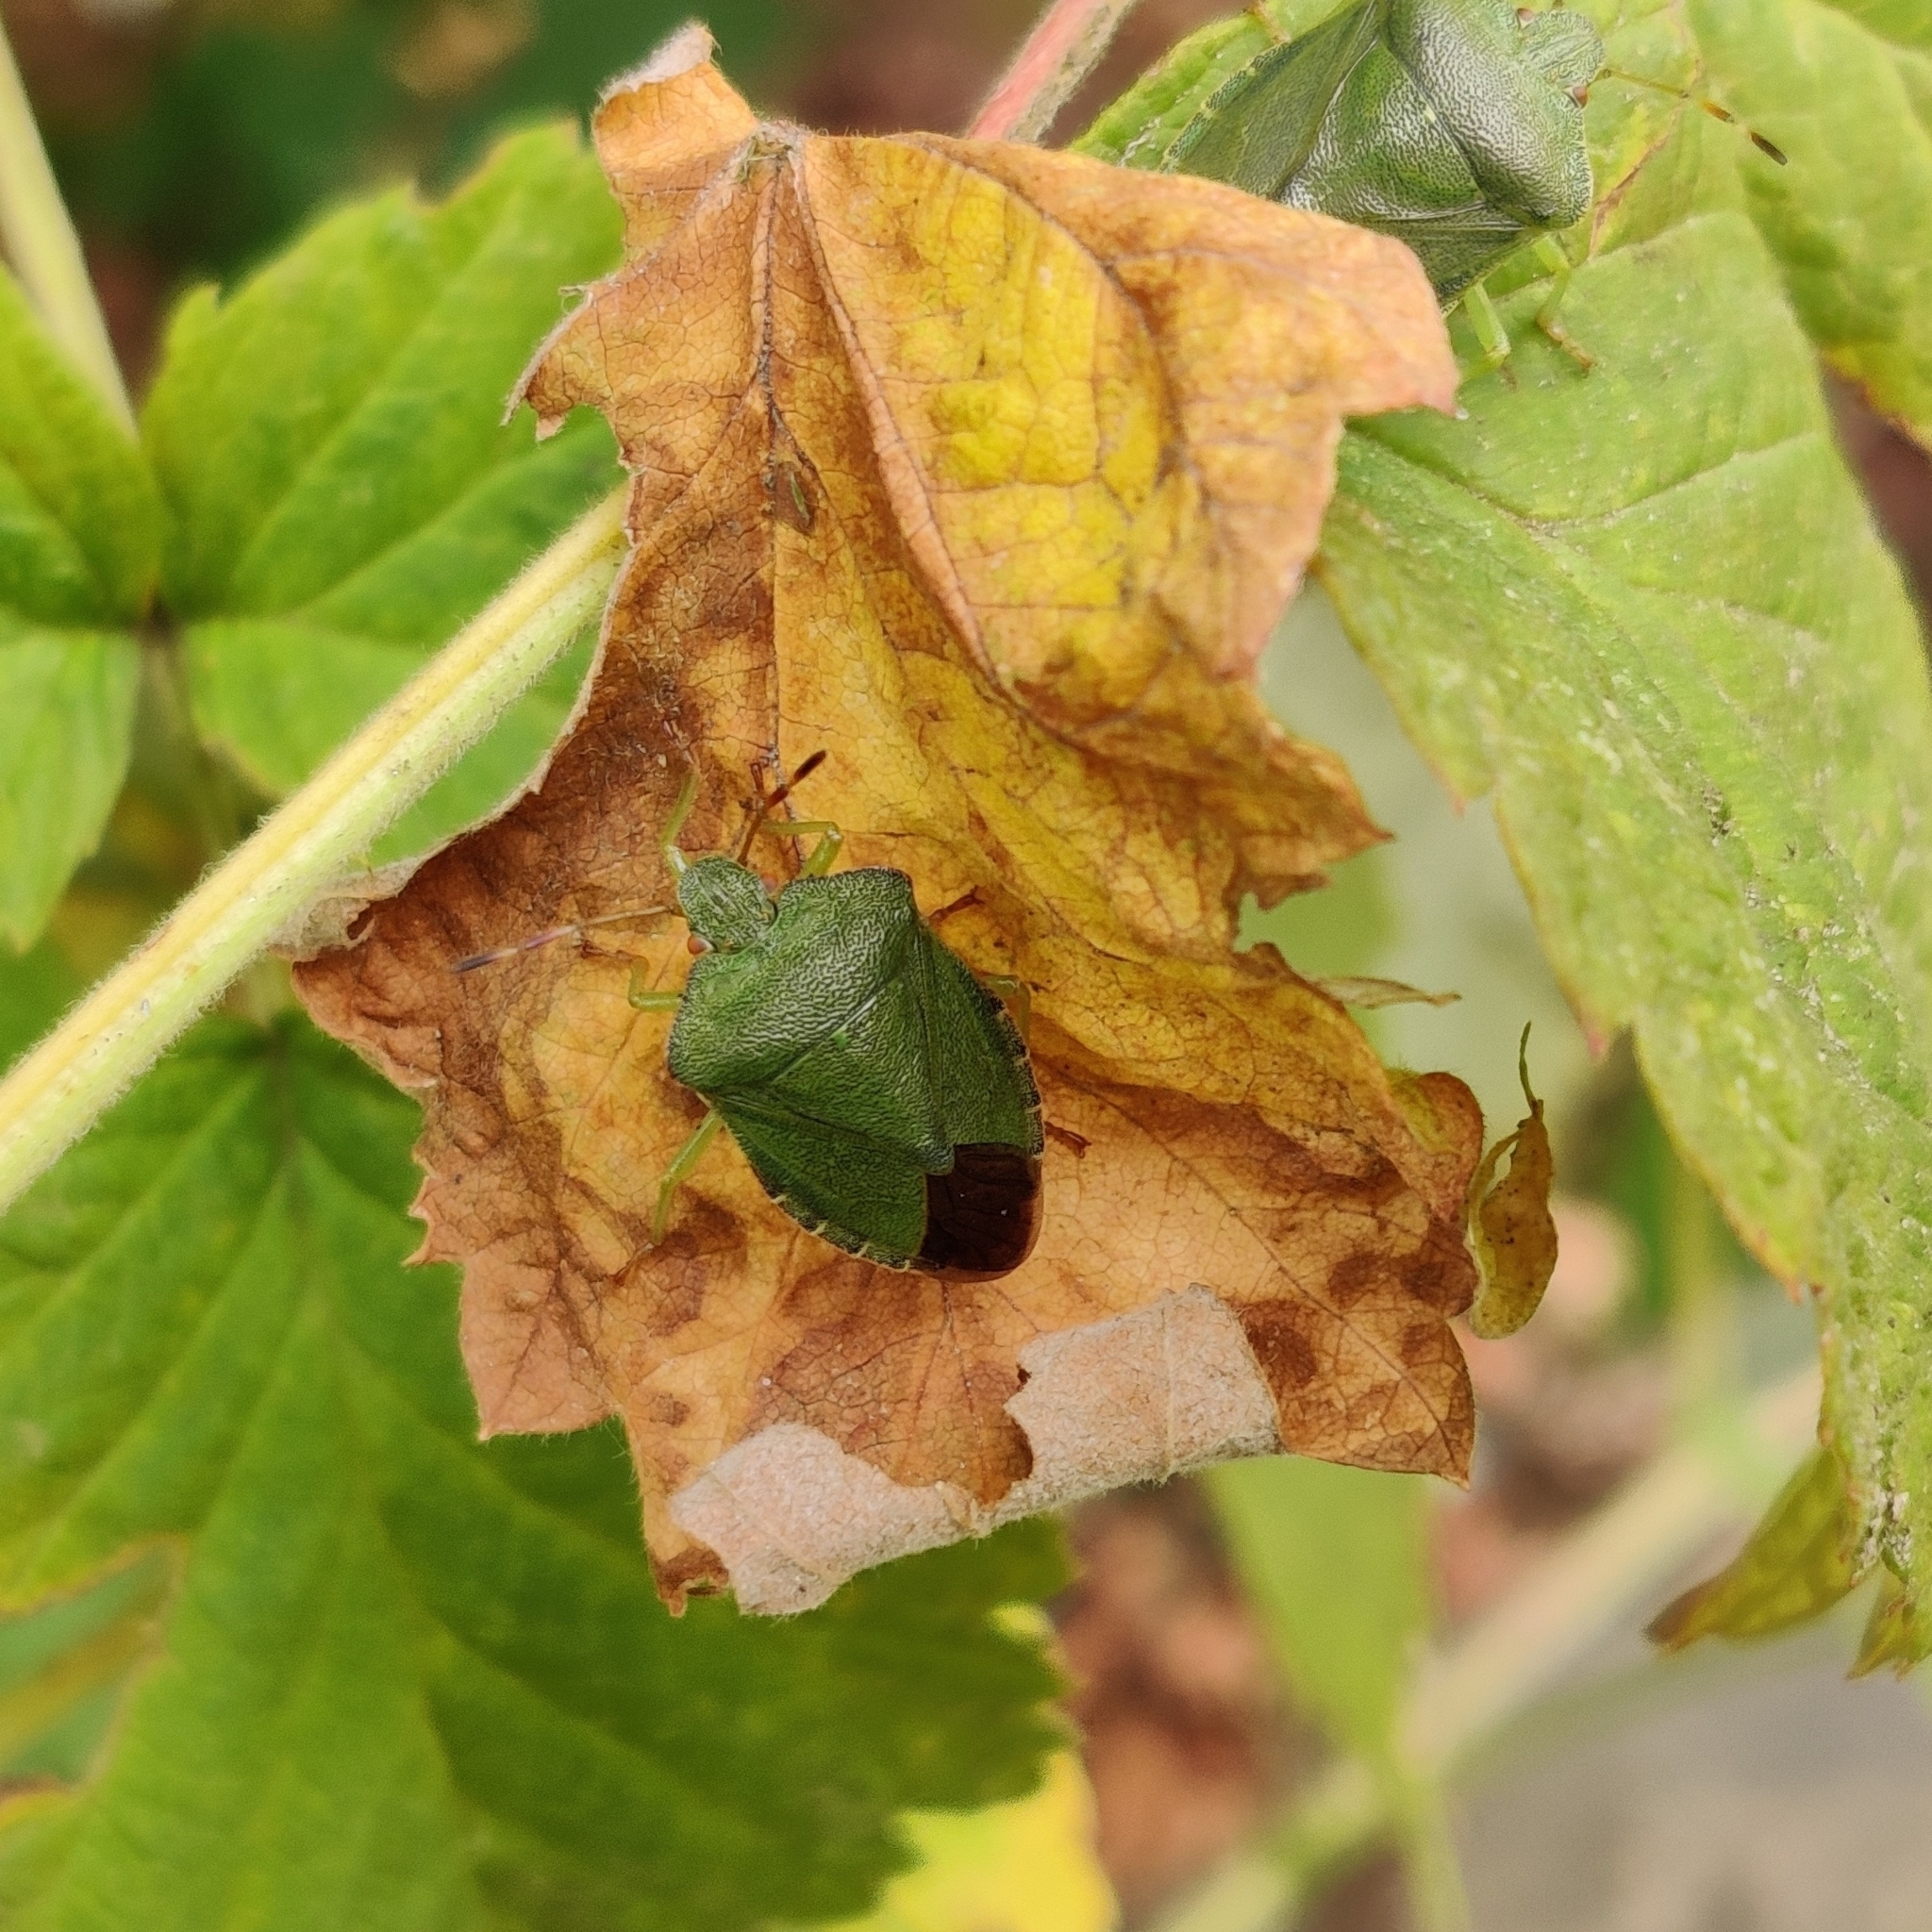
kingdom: Animalia
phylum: Arthropoda
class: Insecta
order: Hemiptera
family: Pentatomidae
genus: Palomena
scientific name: Palomena prasina
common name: Green shieldbug
